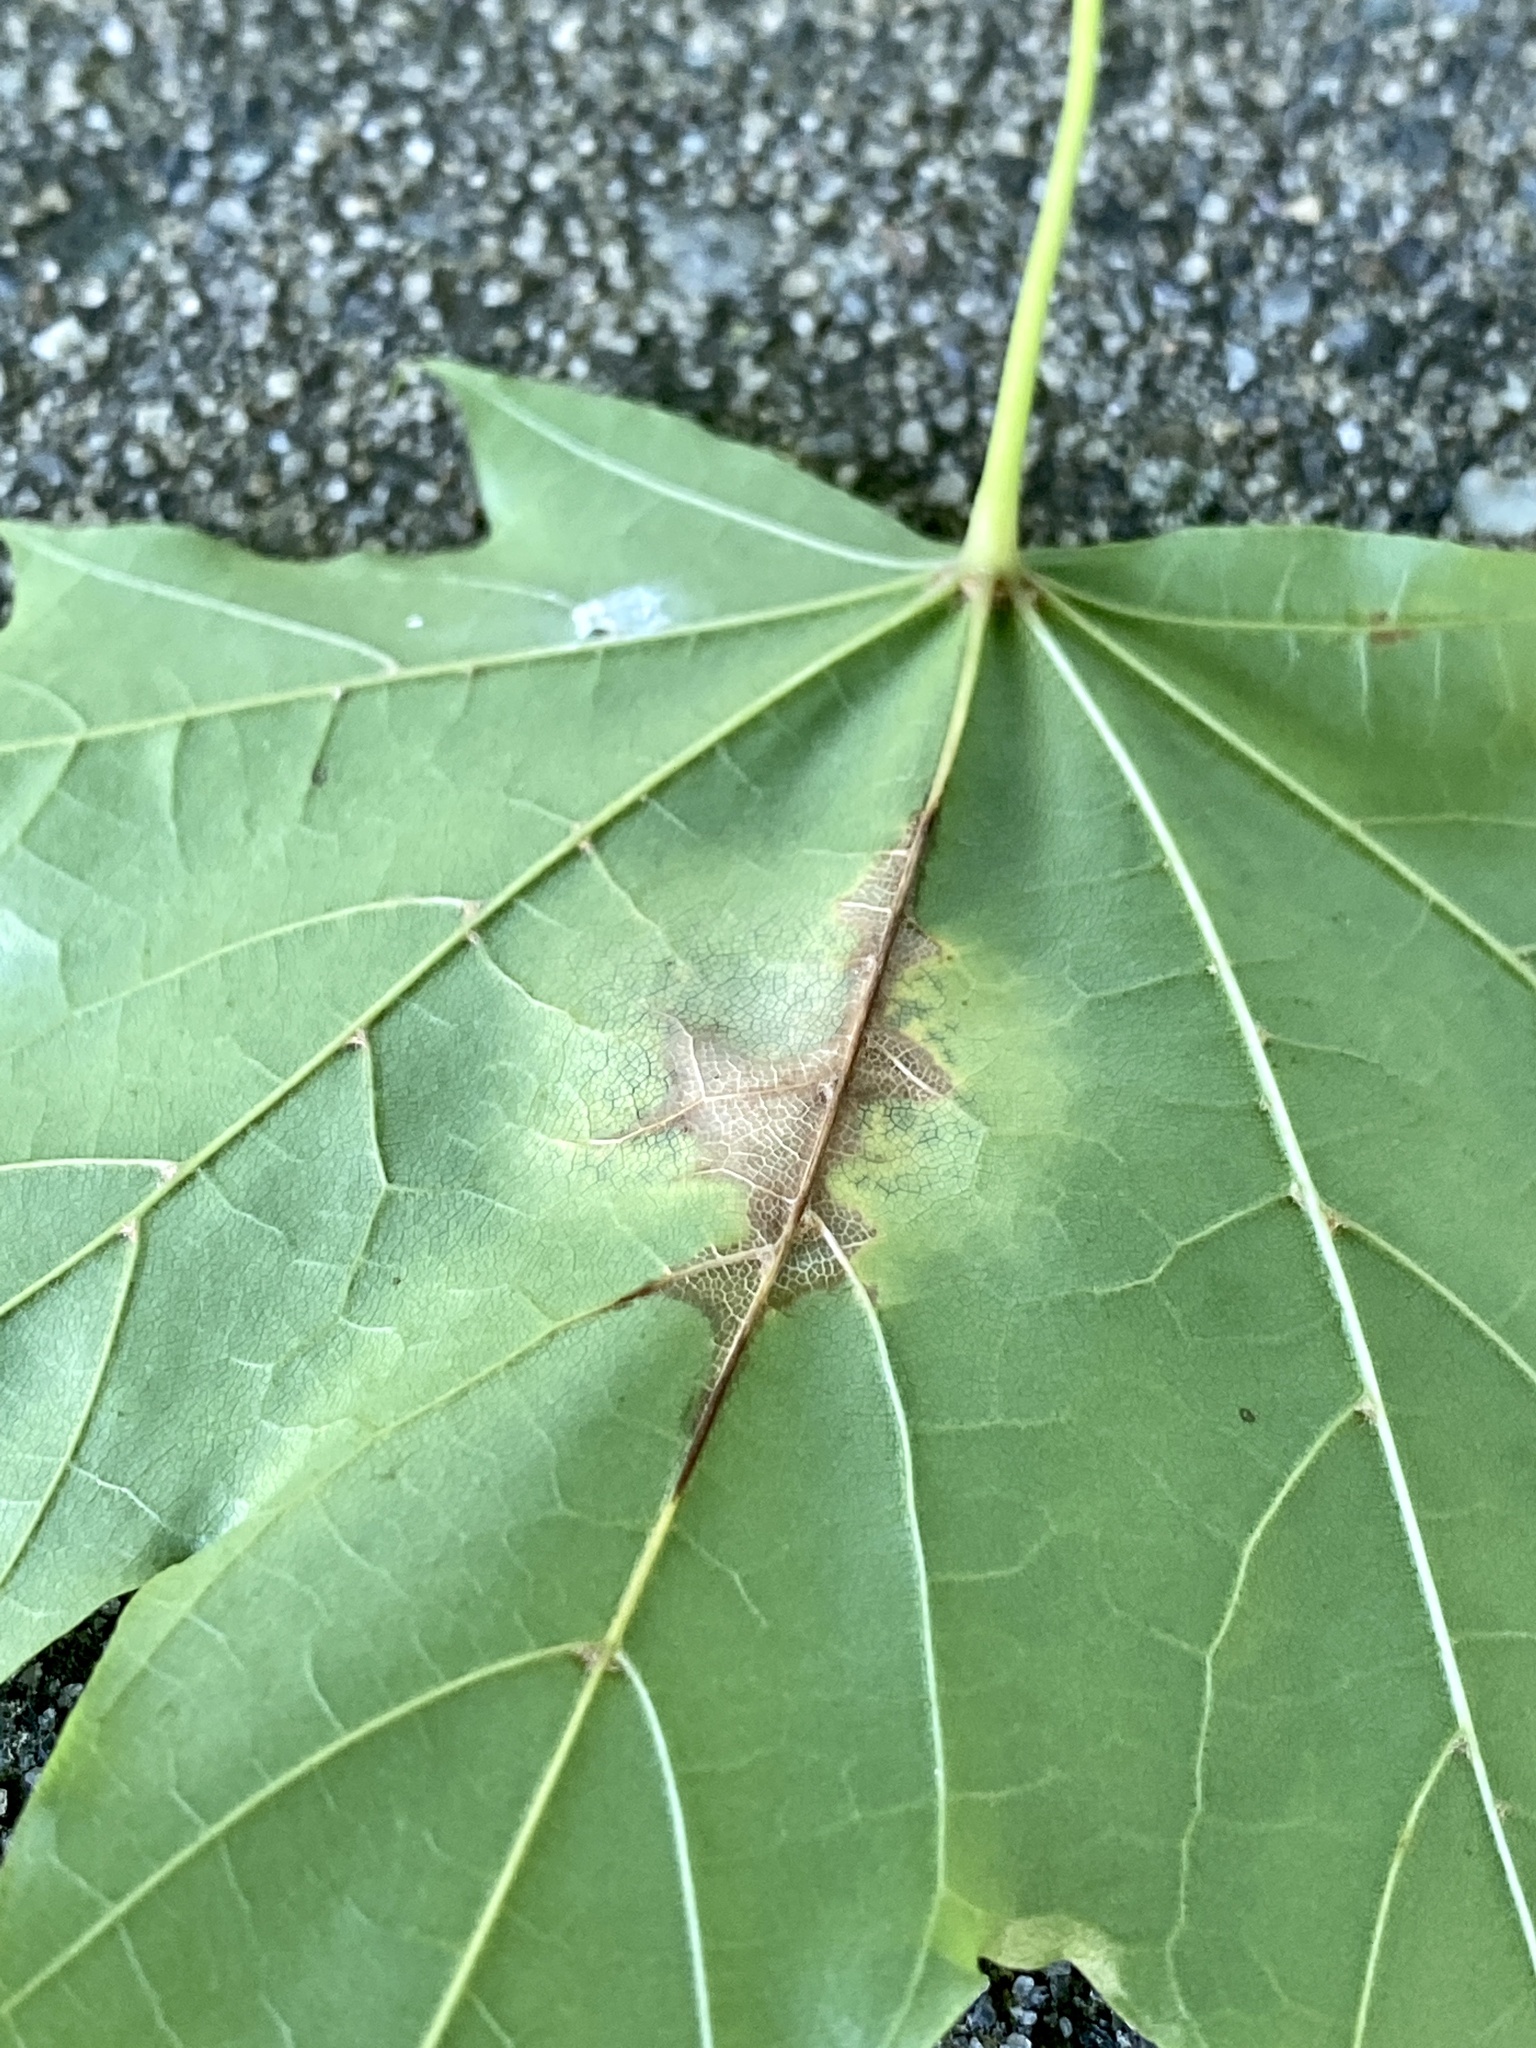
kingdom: Fungi
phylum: Ascomycota
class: Leotiomycetes
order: Rhytismatales
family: Rhytismataceae
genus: Rhytisma
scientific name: Rhytisma acerinum
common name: European tar spot
